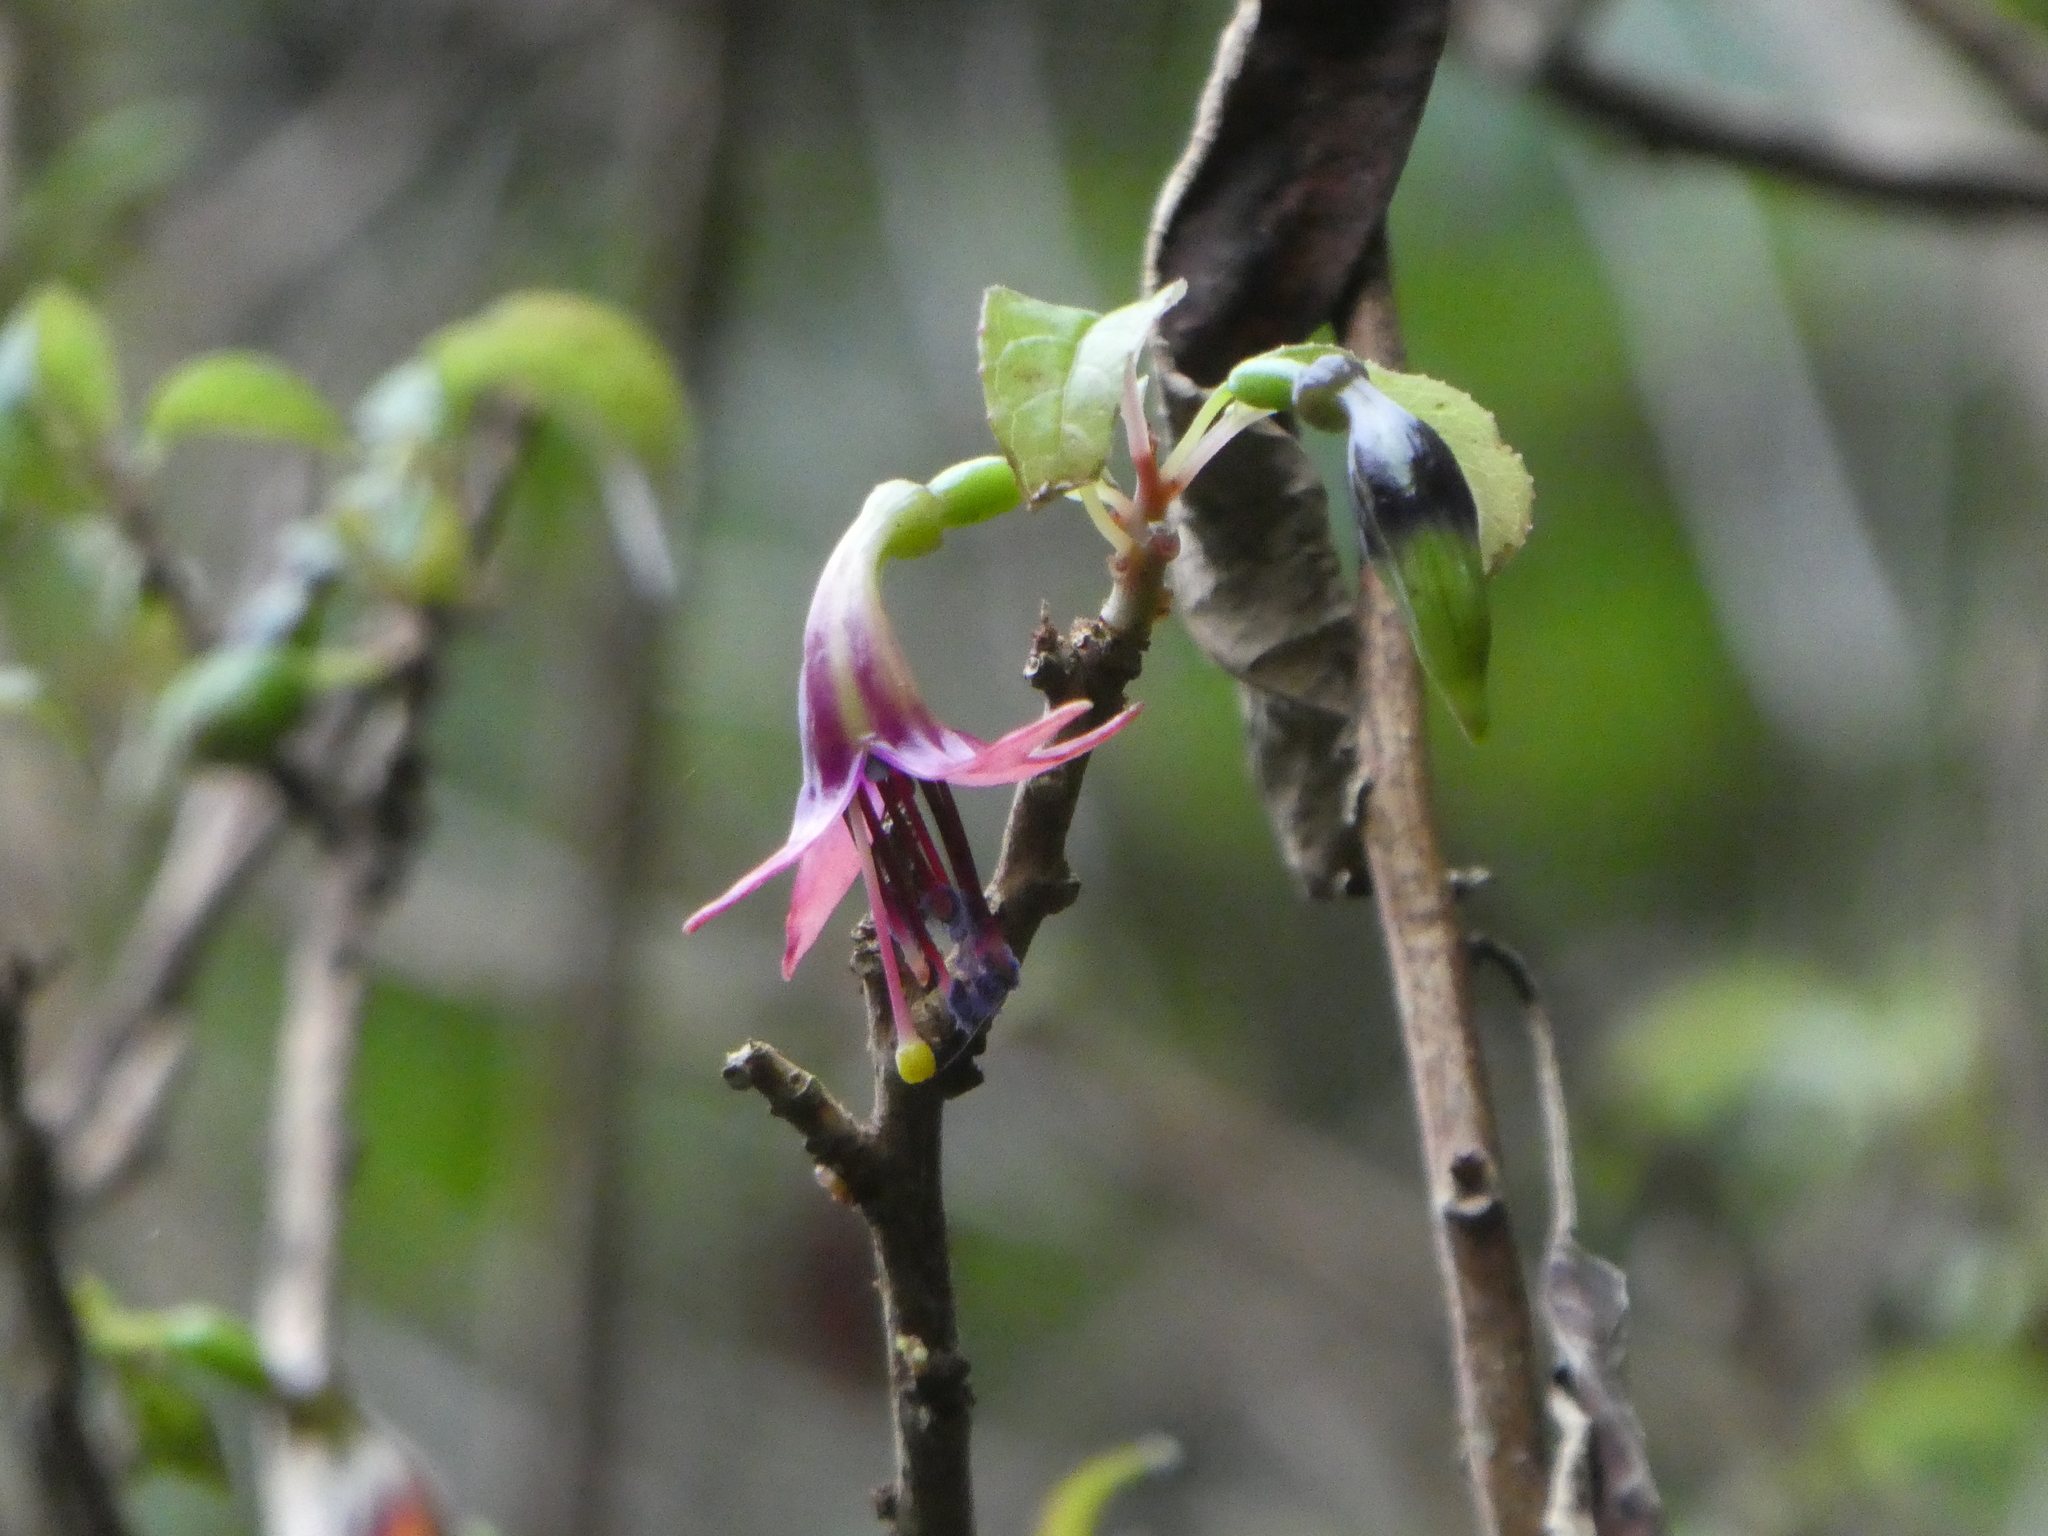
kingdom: Plantae
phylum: Tracheophyta
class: Magnoliopsida
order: Myrtales
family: Onagraceae
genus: Fuchsia
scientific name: Fuchsia excorticata
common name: Tree fuchsia
